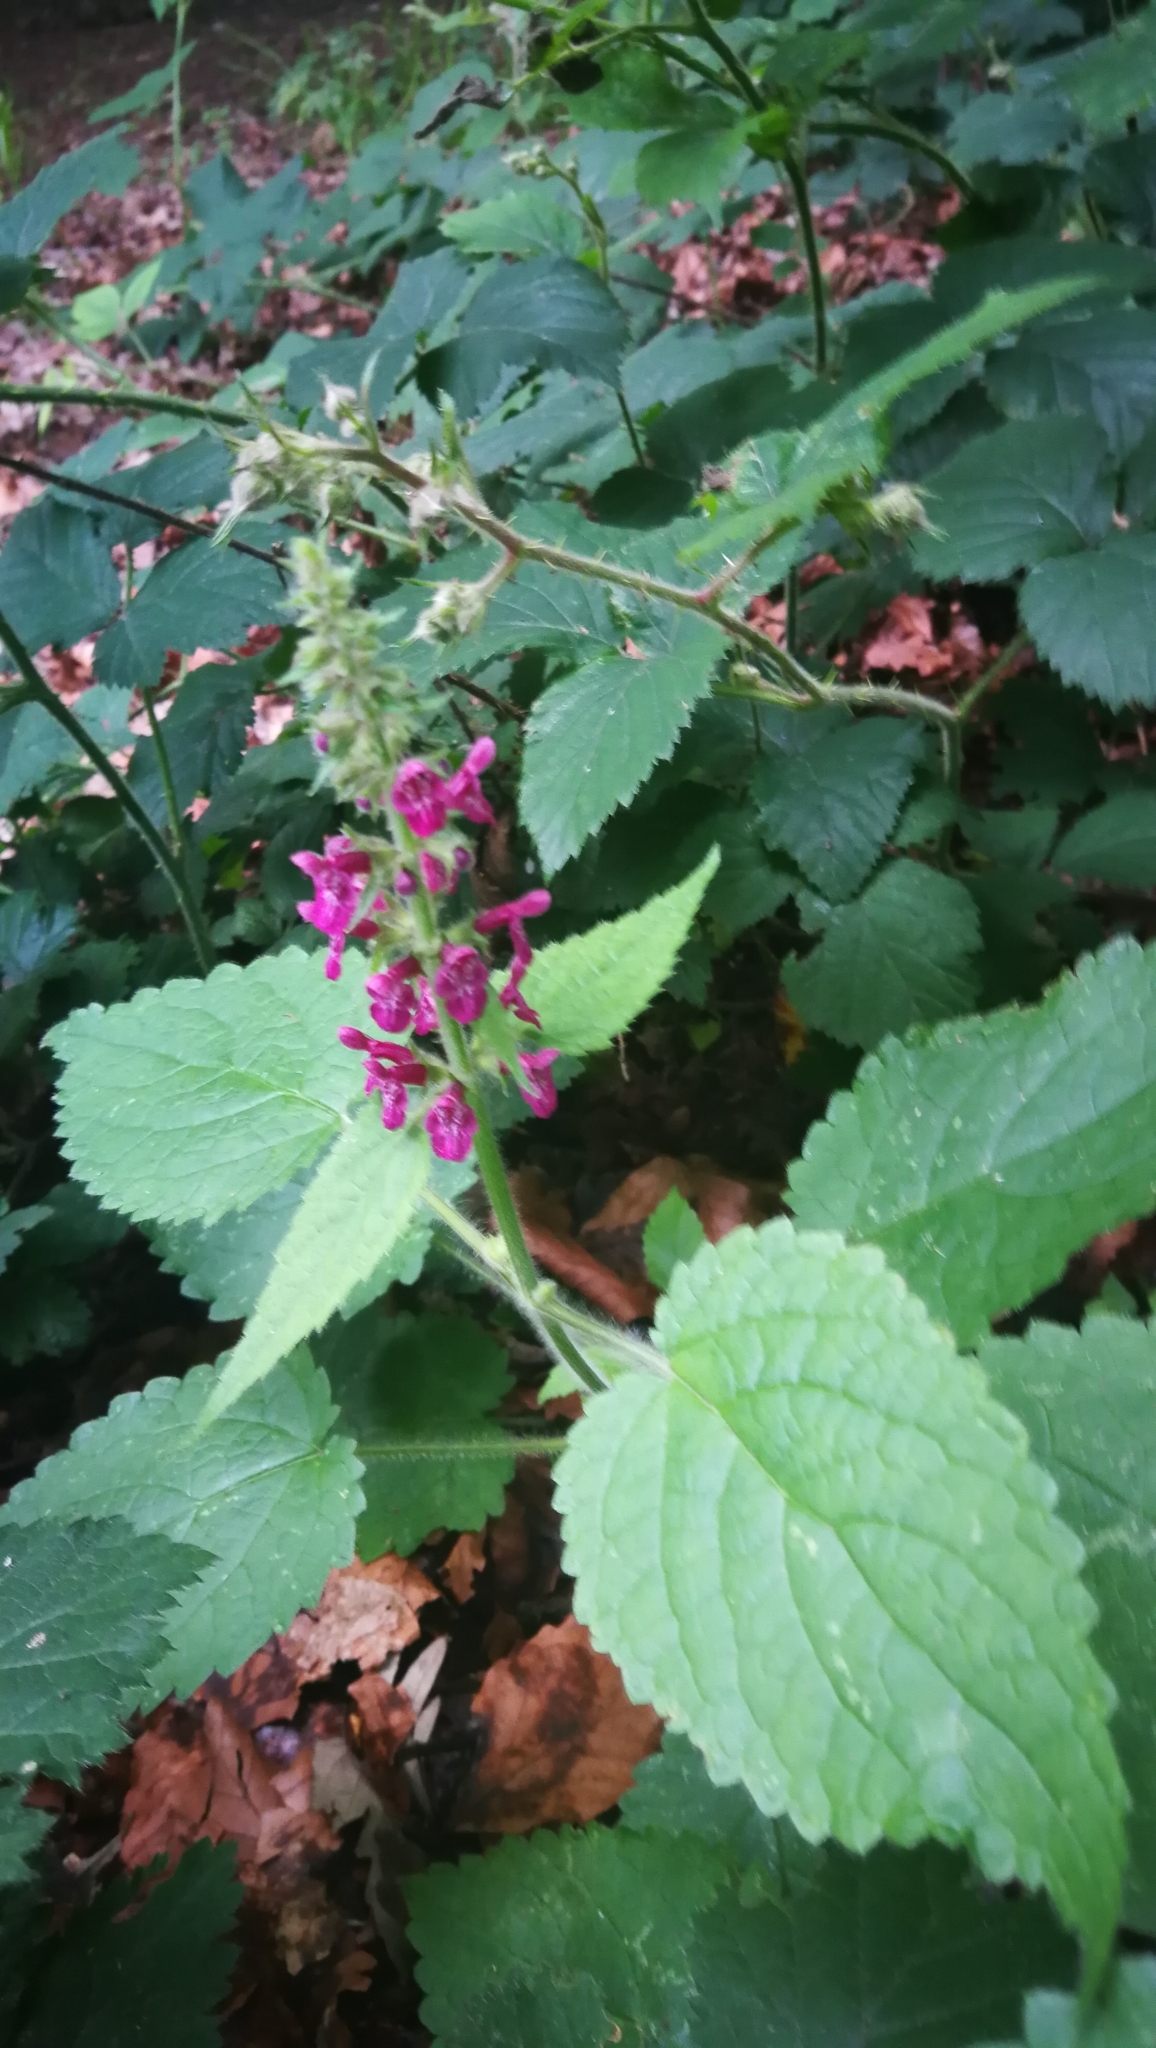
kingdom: Plantae
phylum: Tracheophyta
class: Magnoliopsida
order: Lamiales
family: Lamiaceae
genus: Stachys
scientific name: Stachys sylvatica
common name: Hedge woundwort
